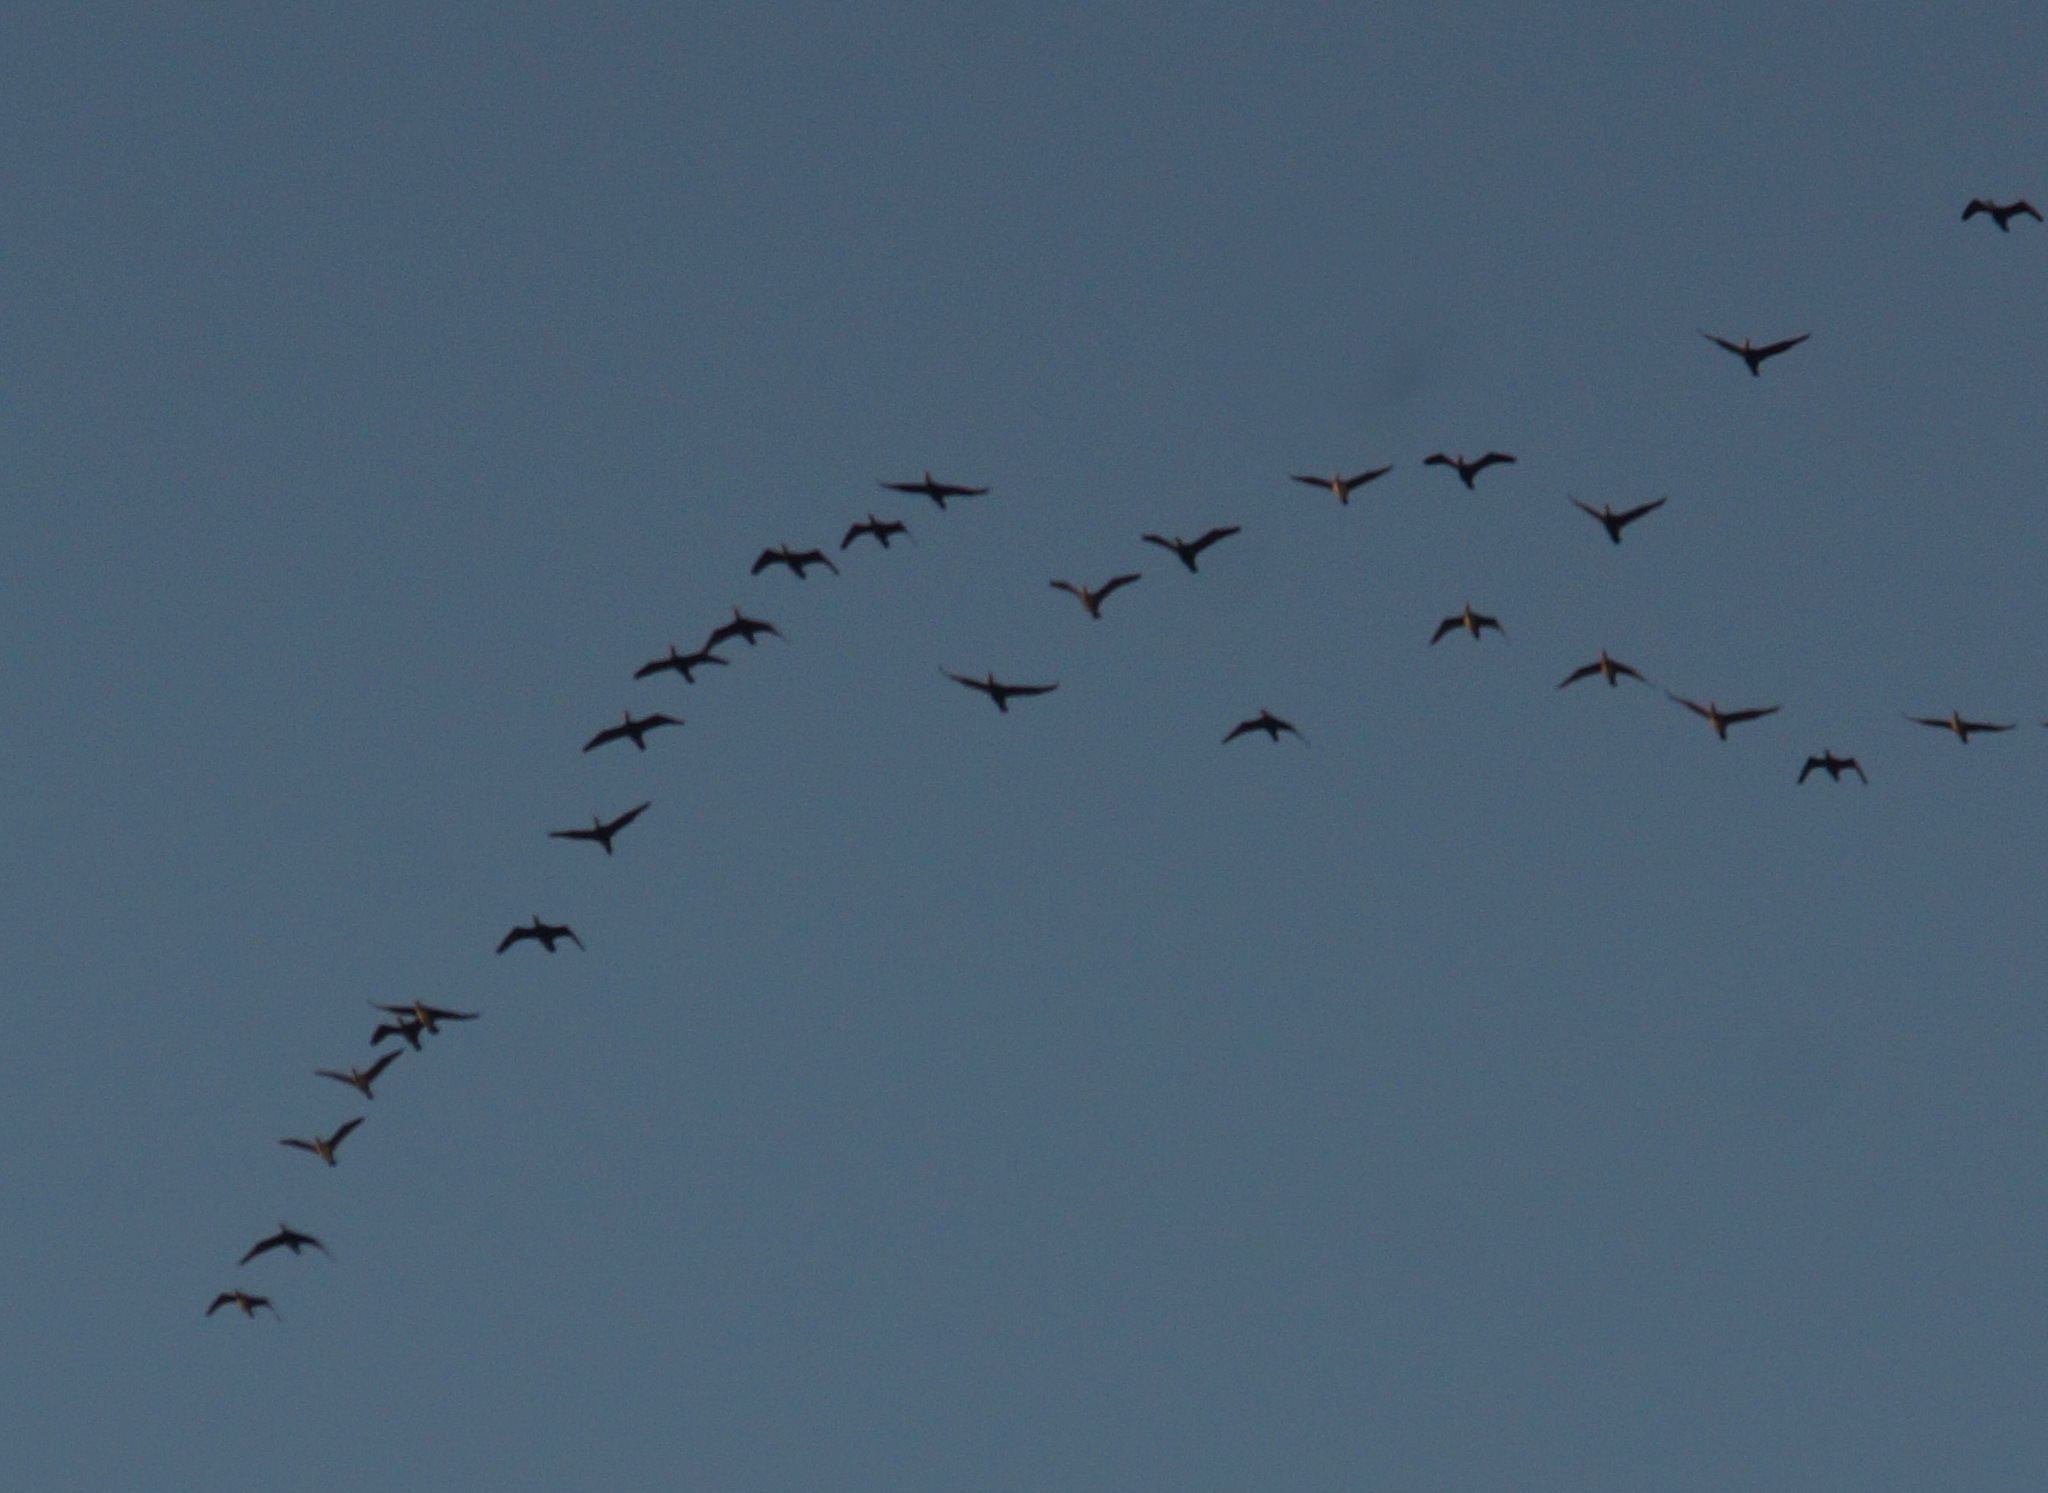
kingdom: Animalia
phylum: Chordata
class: Aves
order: Suliformes
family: Phalacrocoracidae
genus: Phalacrocorax
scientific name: Phalacrocorax carbo
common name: Great cormorant
